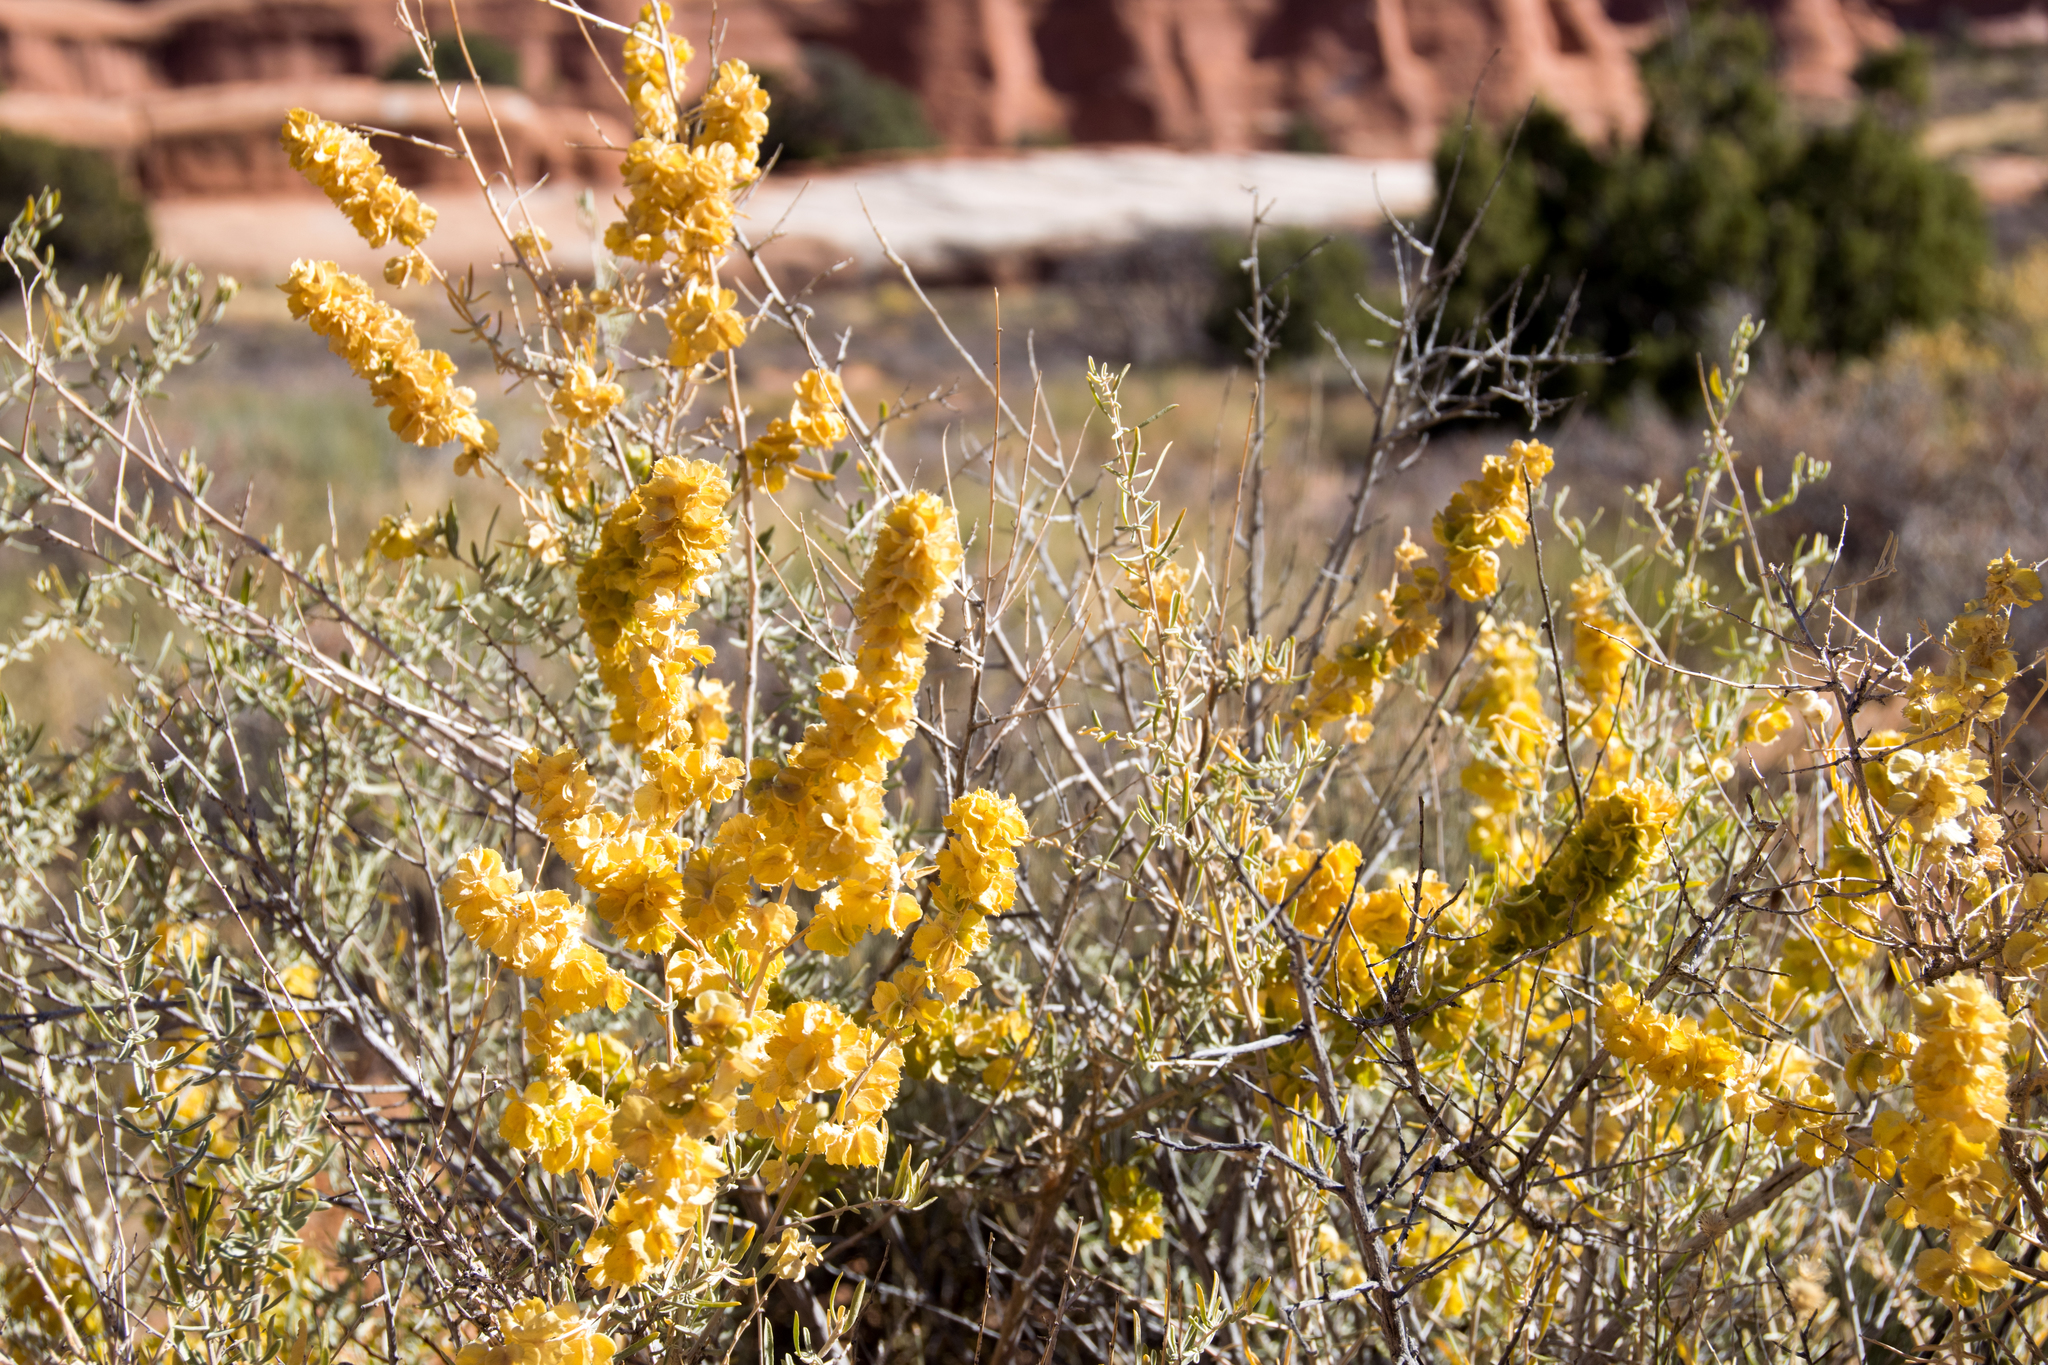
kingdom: Plantae
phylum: Tracheophyta
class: Magnoliopsida
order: Caryophyllales
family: Amaranthaceae
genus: Atriplex
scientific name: Atriplex canescens
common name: Four-wing saltbush
